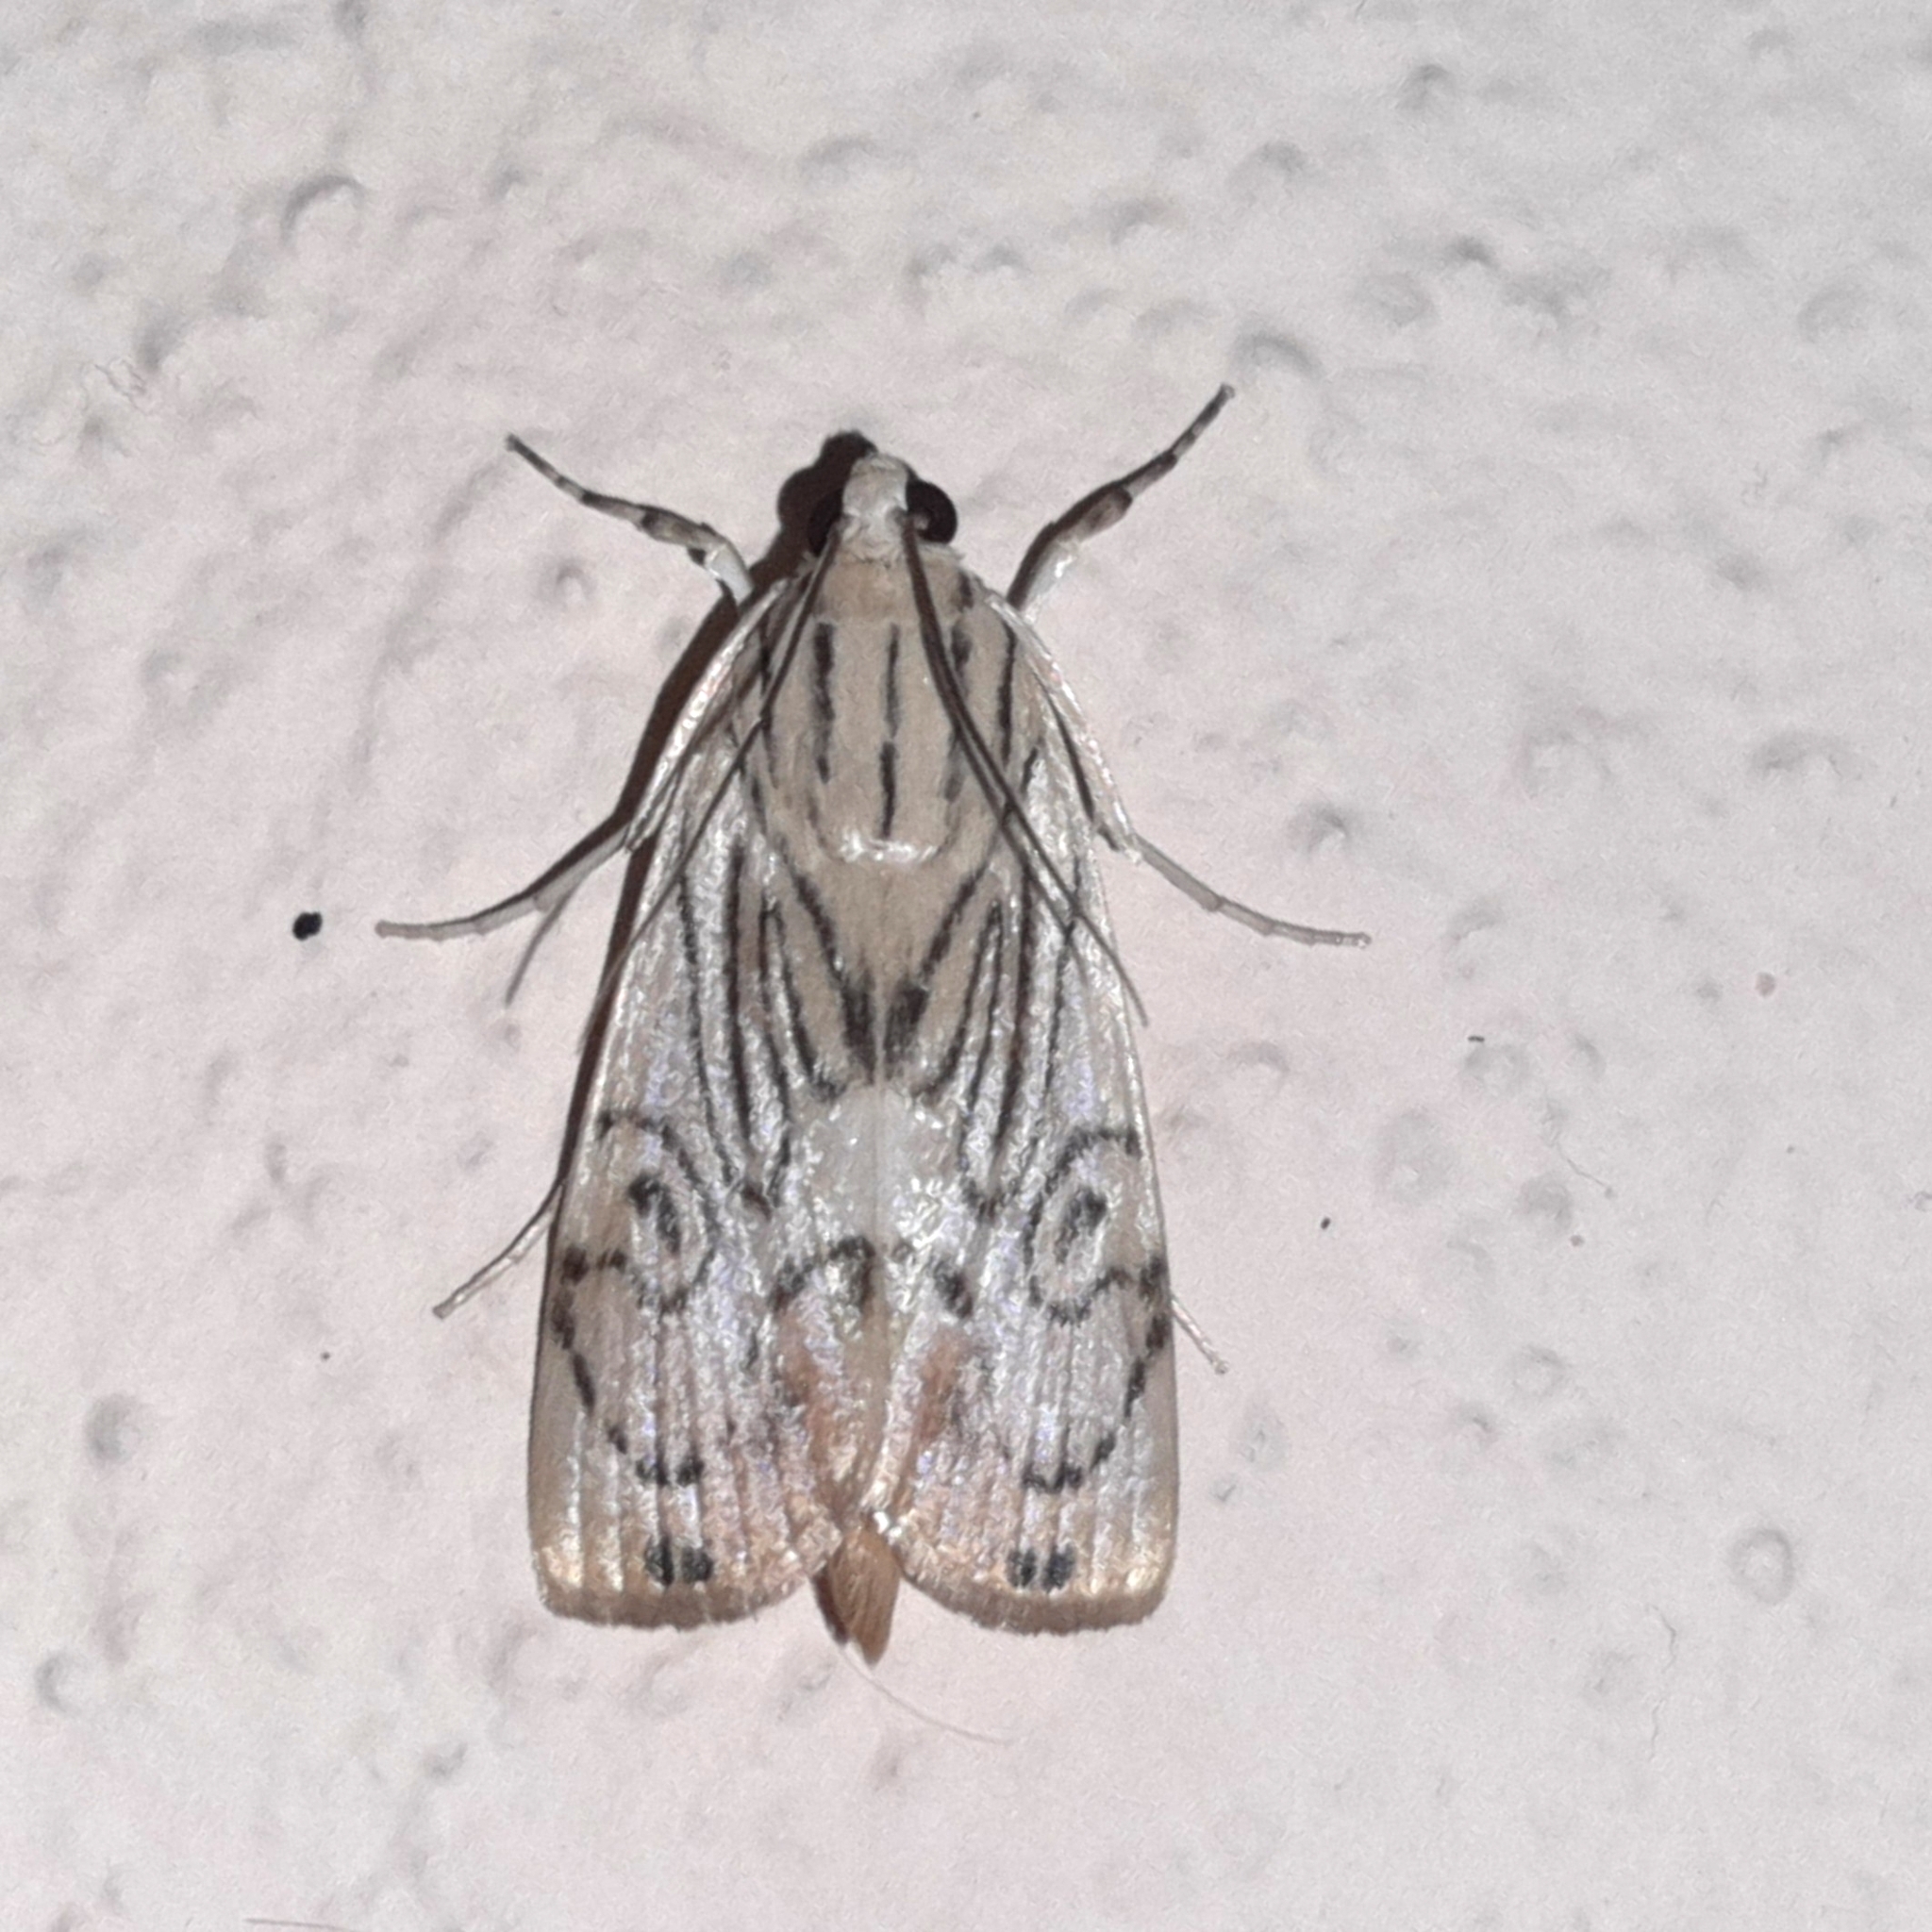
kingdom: Animalia
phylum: Arthropoda
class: Insecta
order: Lepidoptera
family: Crambidae
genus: Dichogama
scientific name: Dichogama redtenbacheri
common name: Carper-leaf webworm moth
